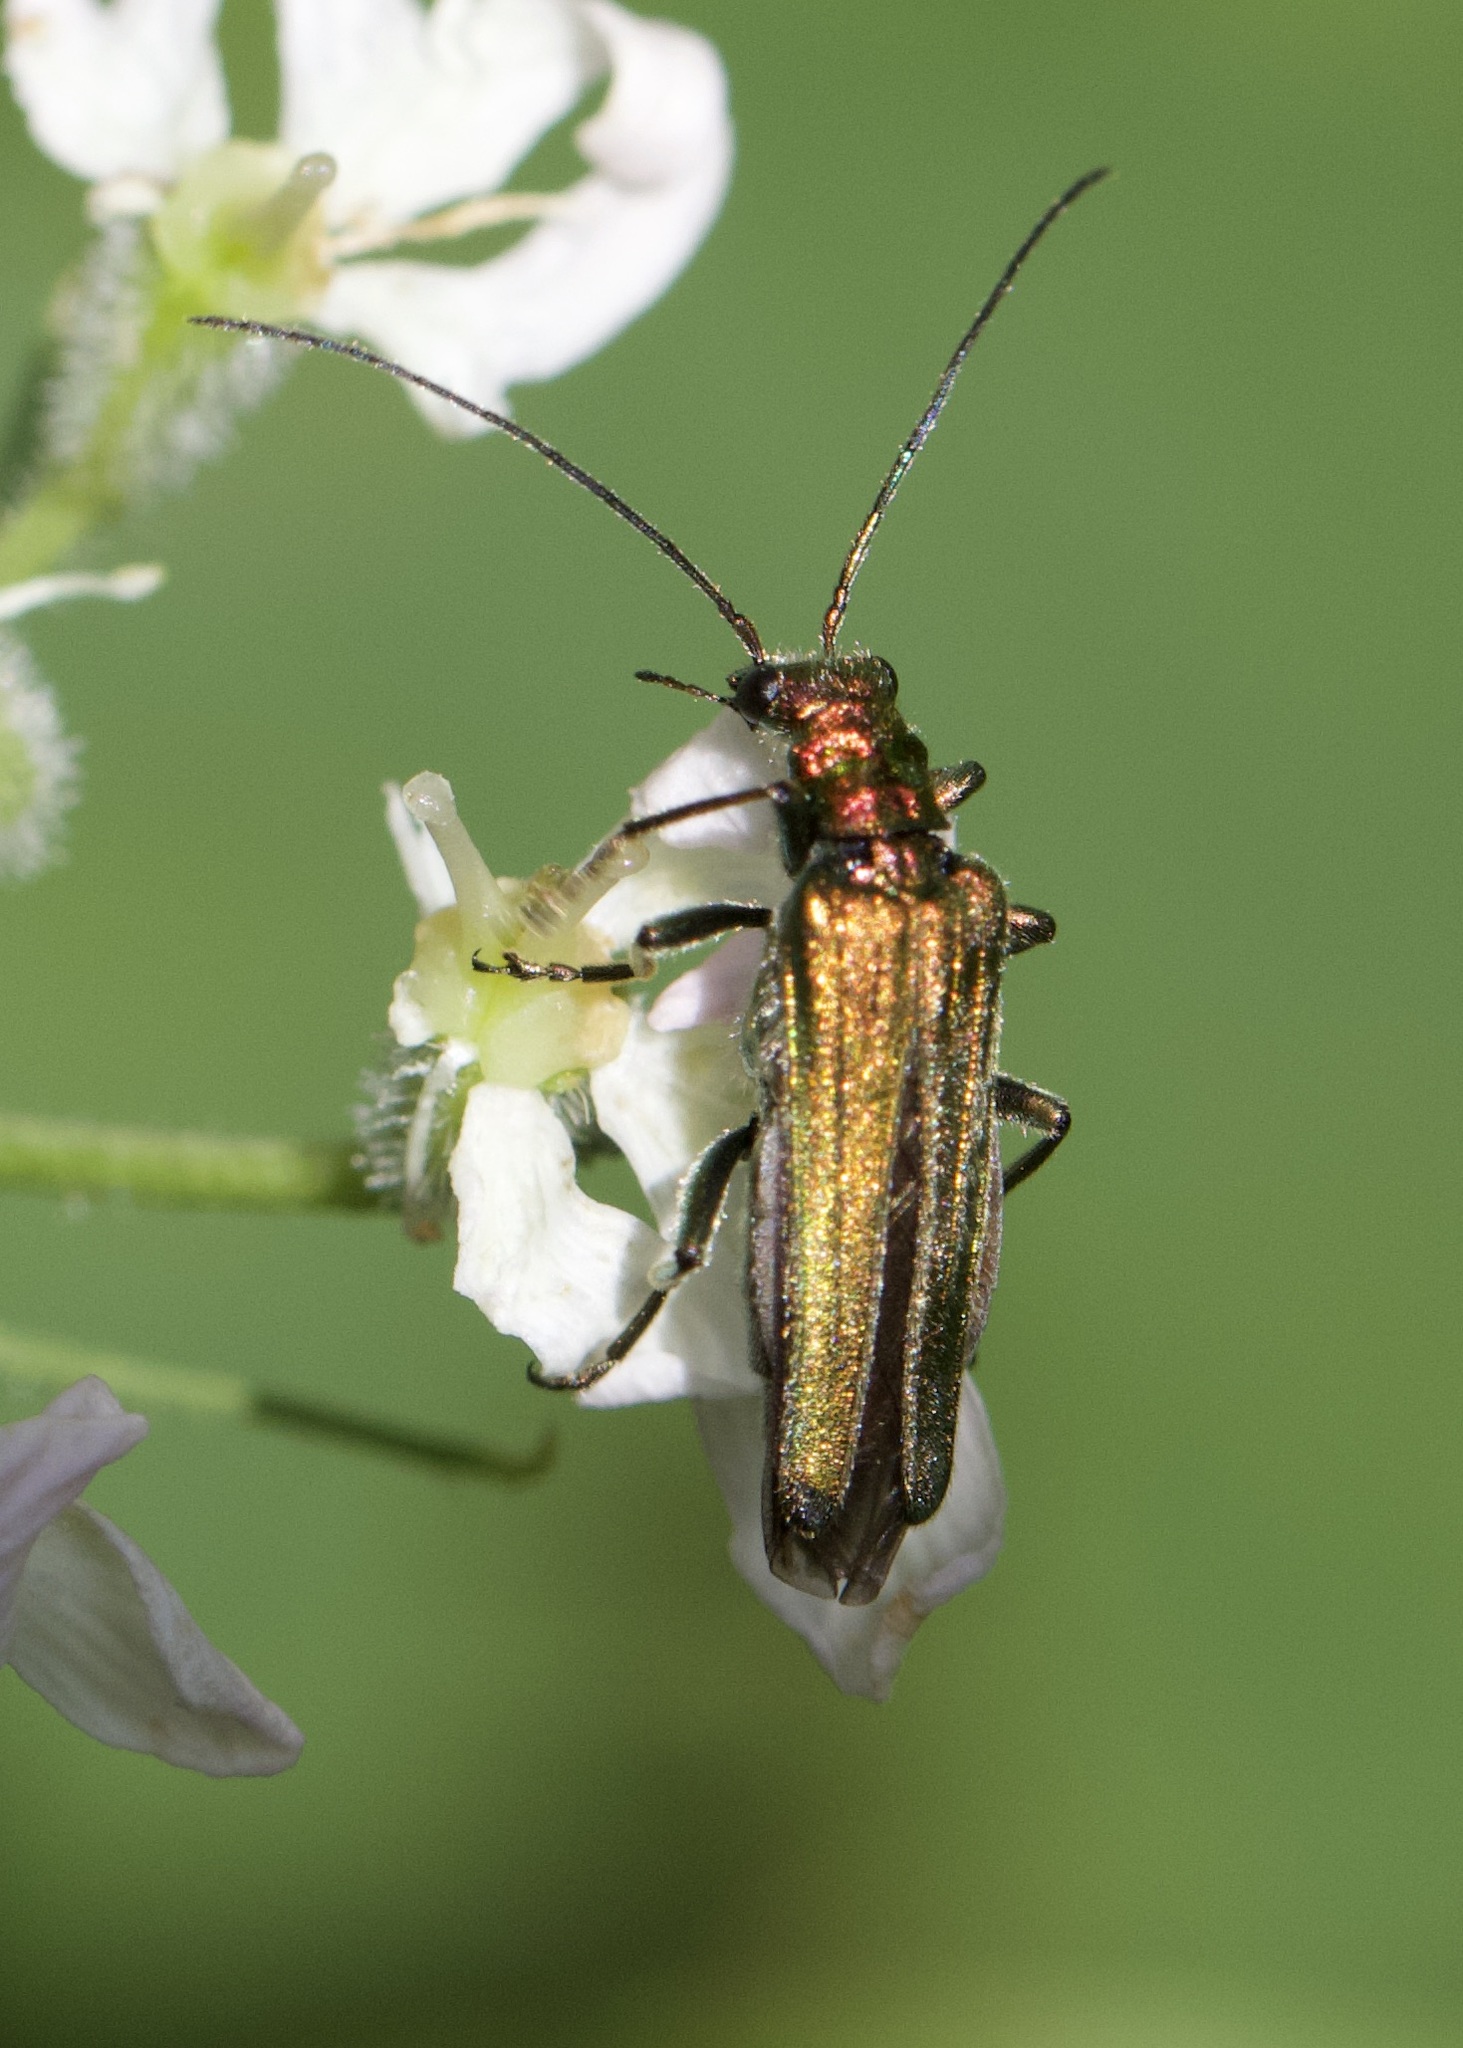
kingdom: Animalia
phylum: Arthropoda
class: Insecta
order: Coleoptera
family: Oedemeridae
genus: Oedemera
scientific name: Oedemera nobilis
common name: Swollen-thighed beetle
